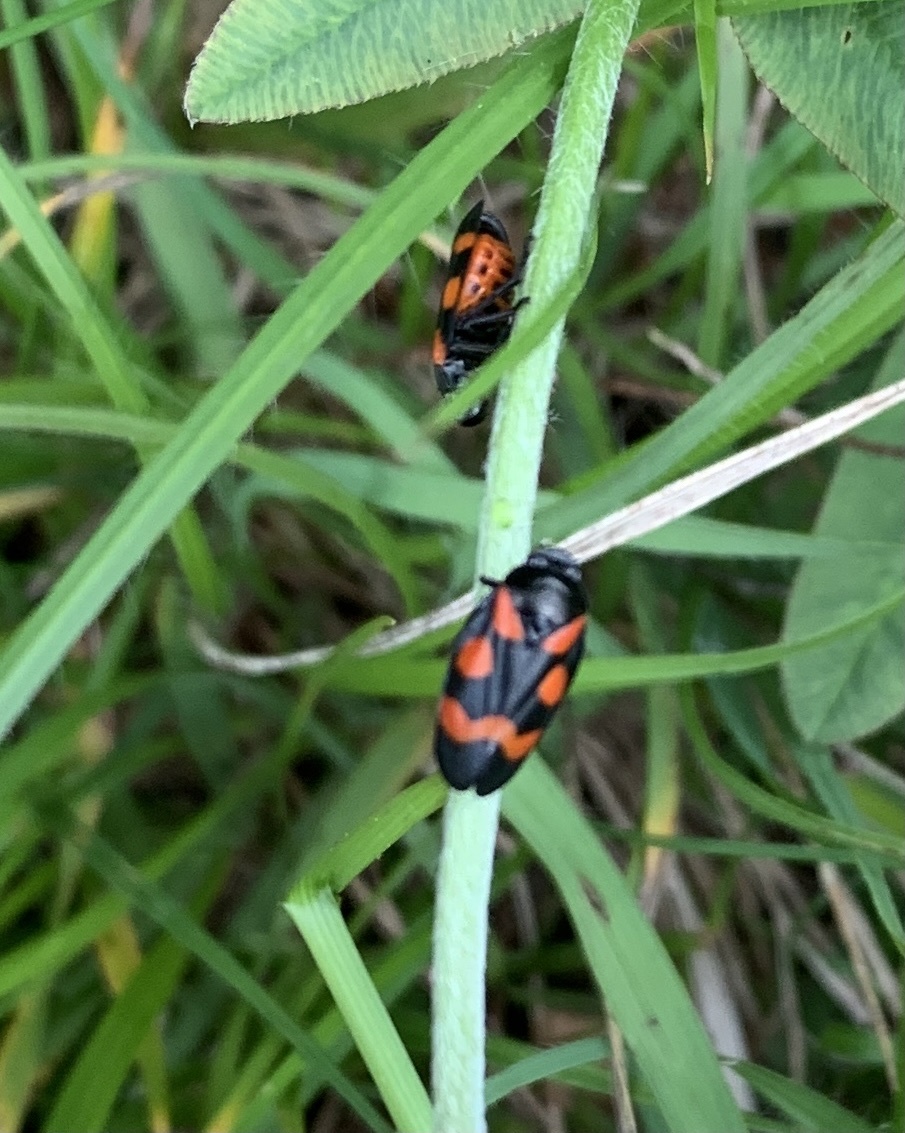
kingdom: Animalia
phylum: Arthropoda
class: Insecta
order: Hemiptera
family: Cercopidae
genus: Cercopis
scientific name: Cercopis sanguinolenta
